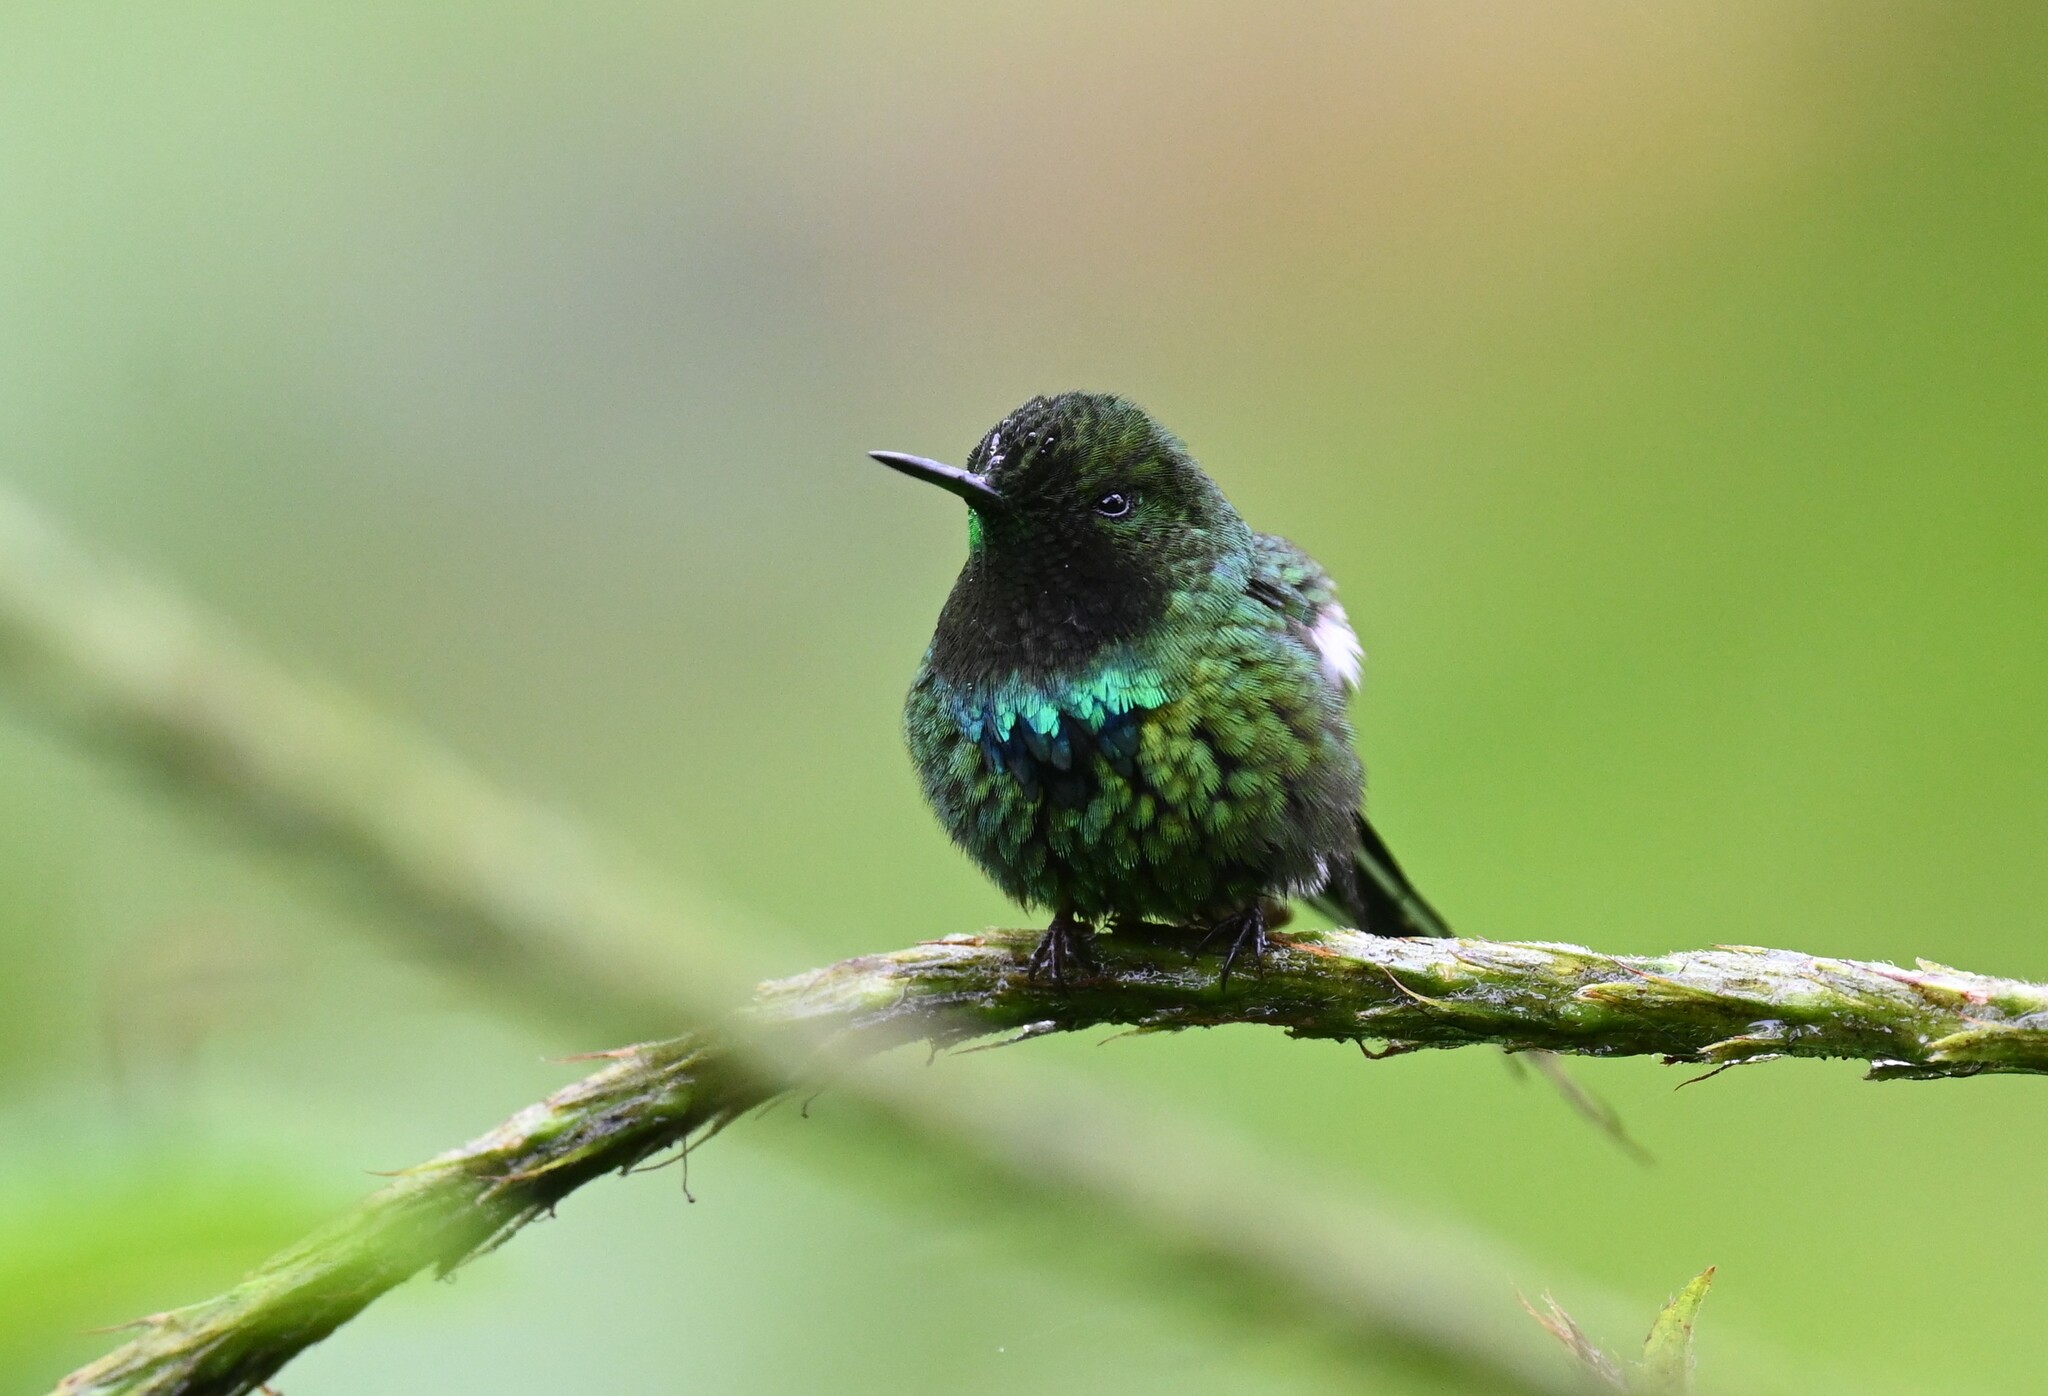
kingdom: Animalia
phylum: Chordata
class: Aves
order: Apodiformes
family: Trochilidae
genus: Discosura
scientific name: Discosura conversii
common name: Green thorntail
